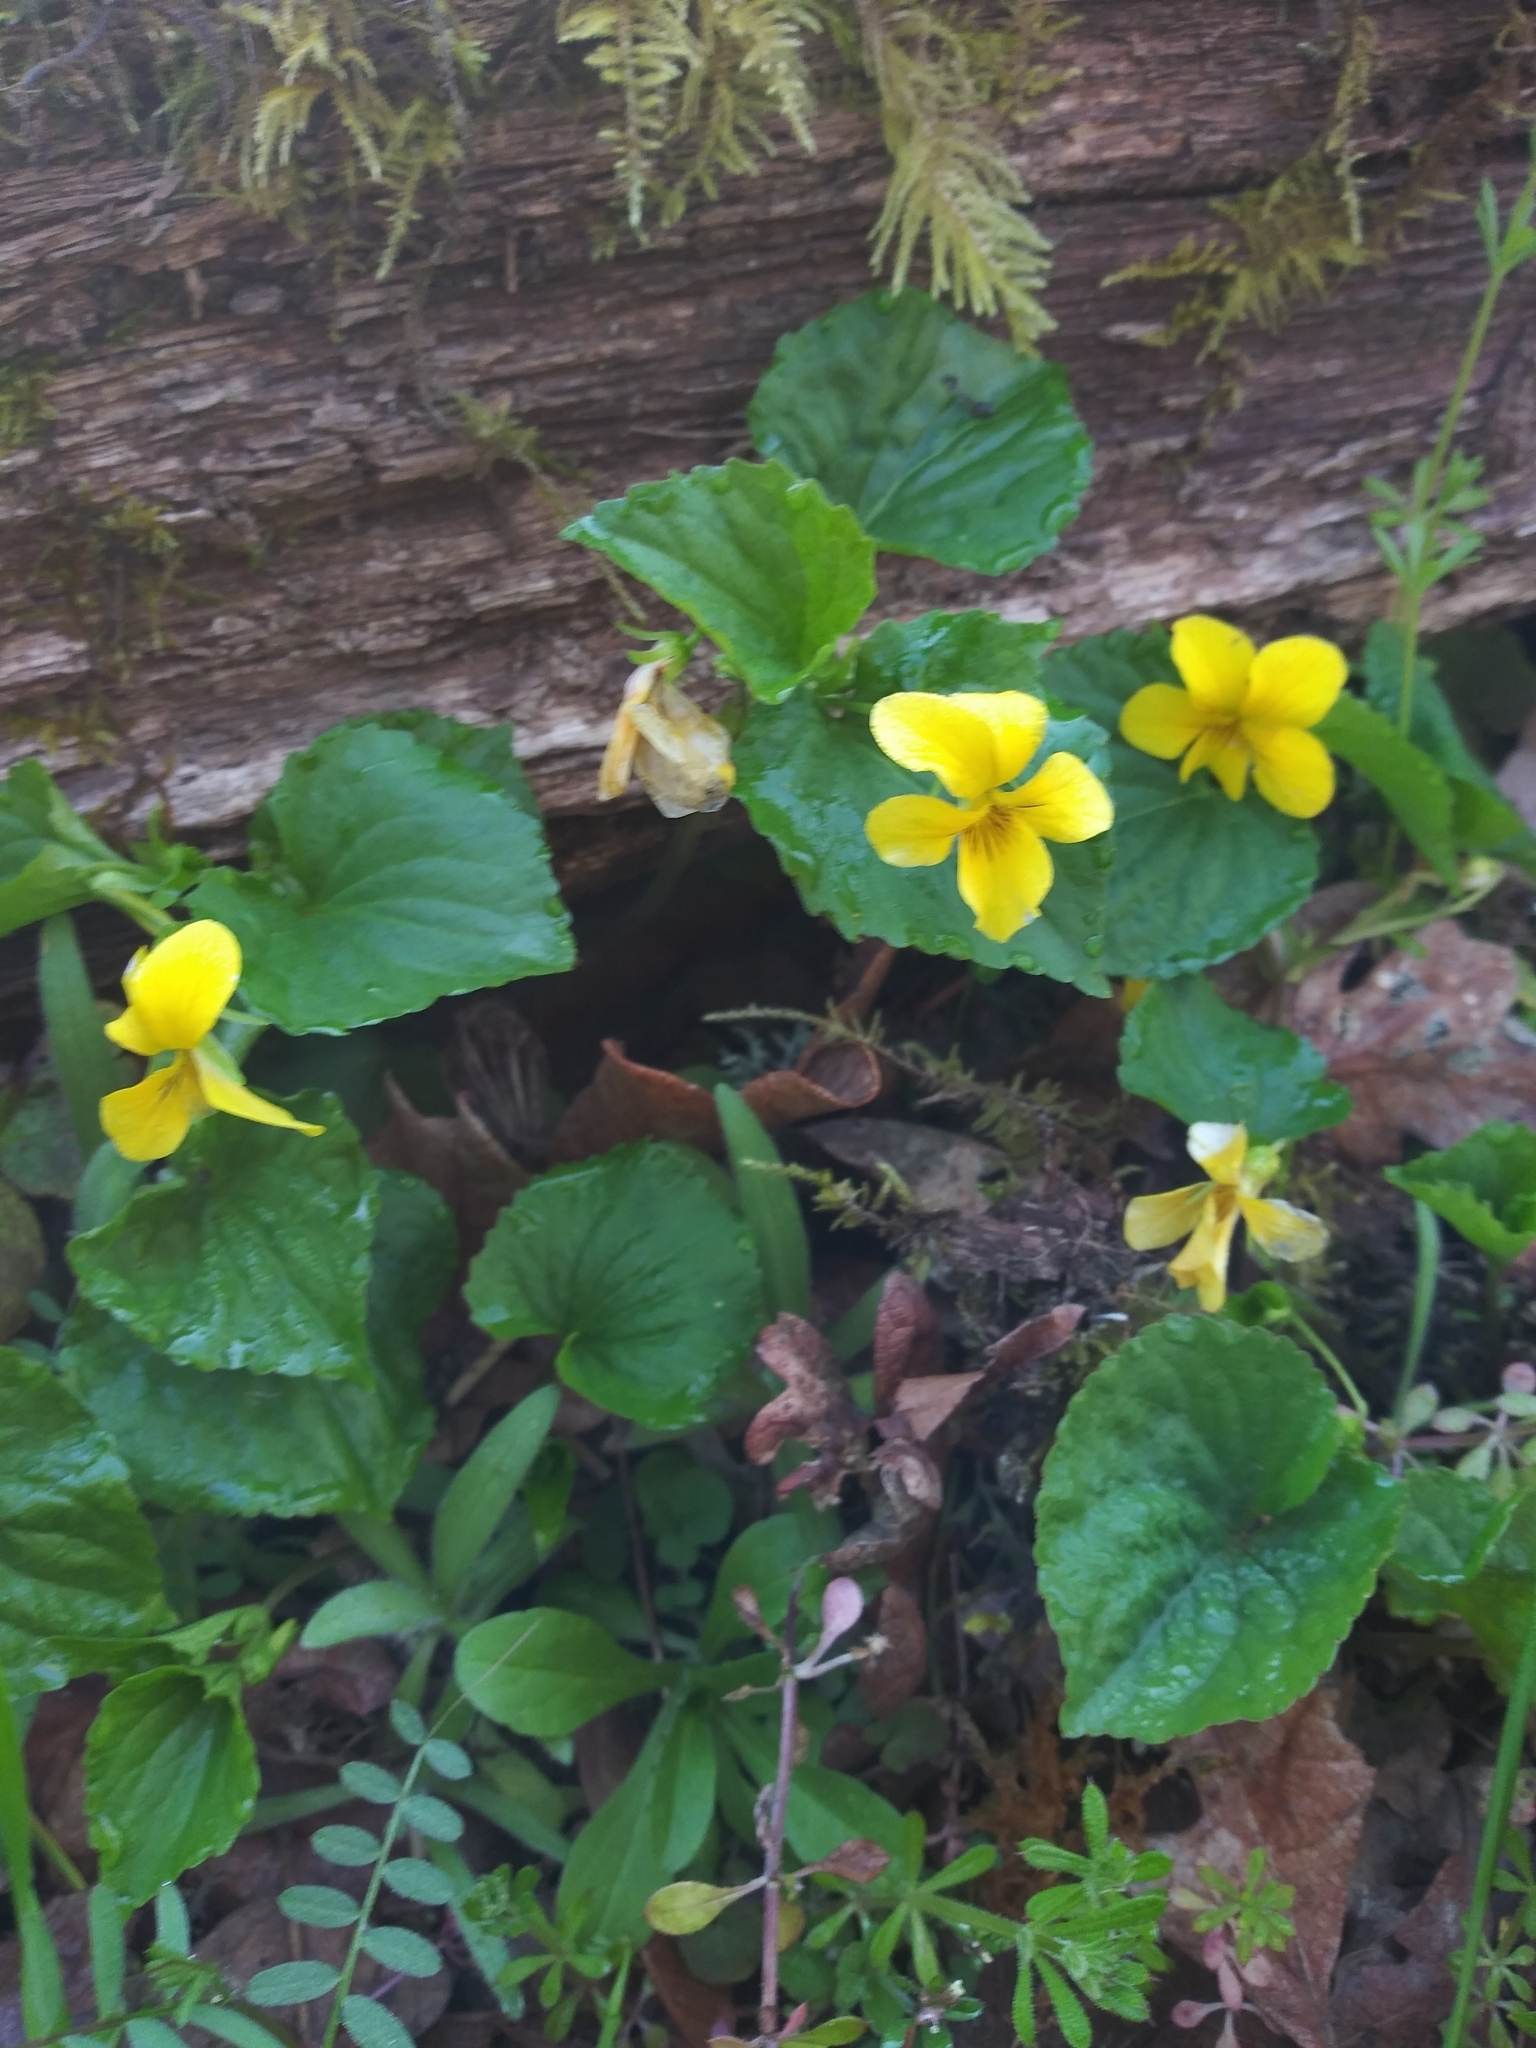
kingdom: Plantae
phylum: Tracheophyta
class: Magnoliopsida
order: Malpighiales
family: Violaceae
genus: Viola
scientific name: Viola glabella
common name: Stream violet
